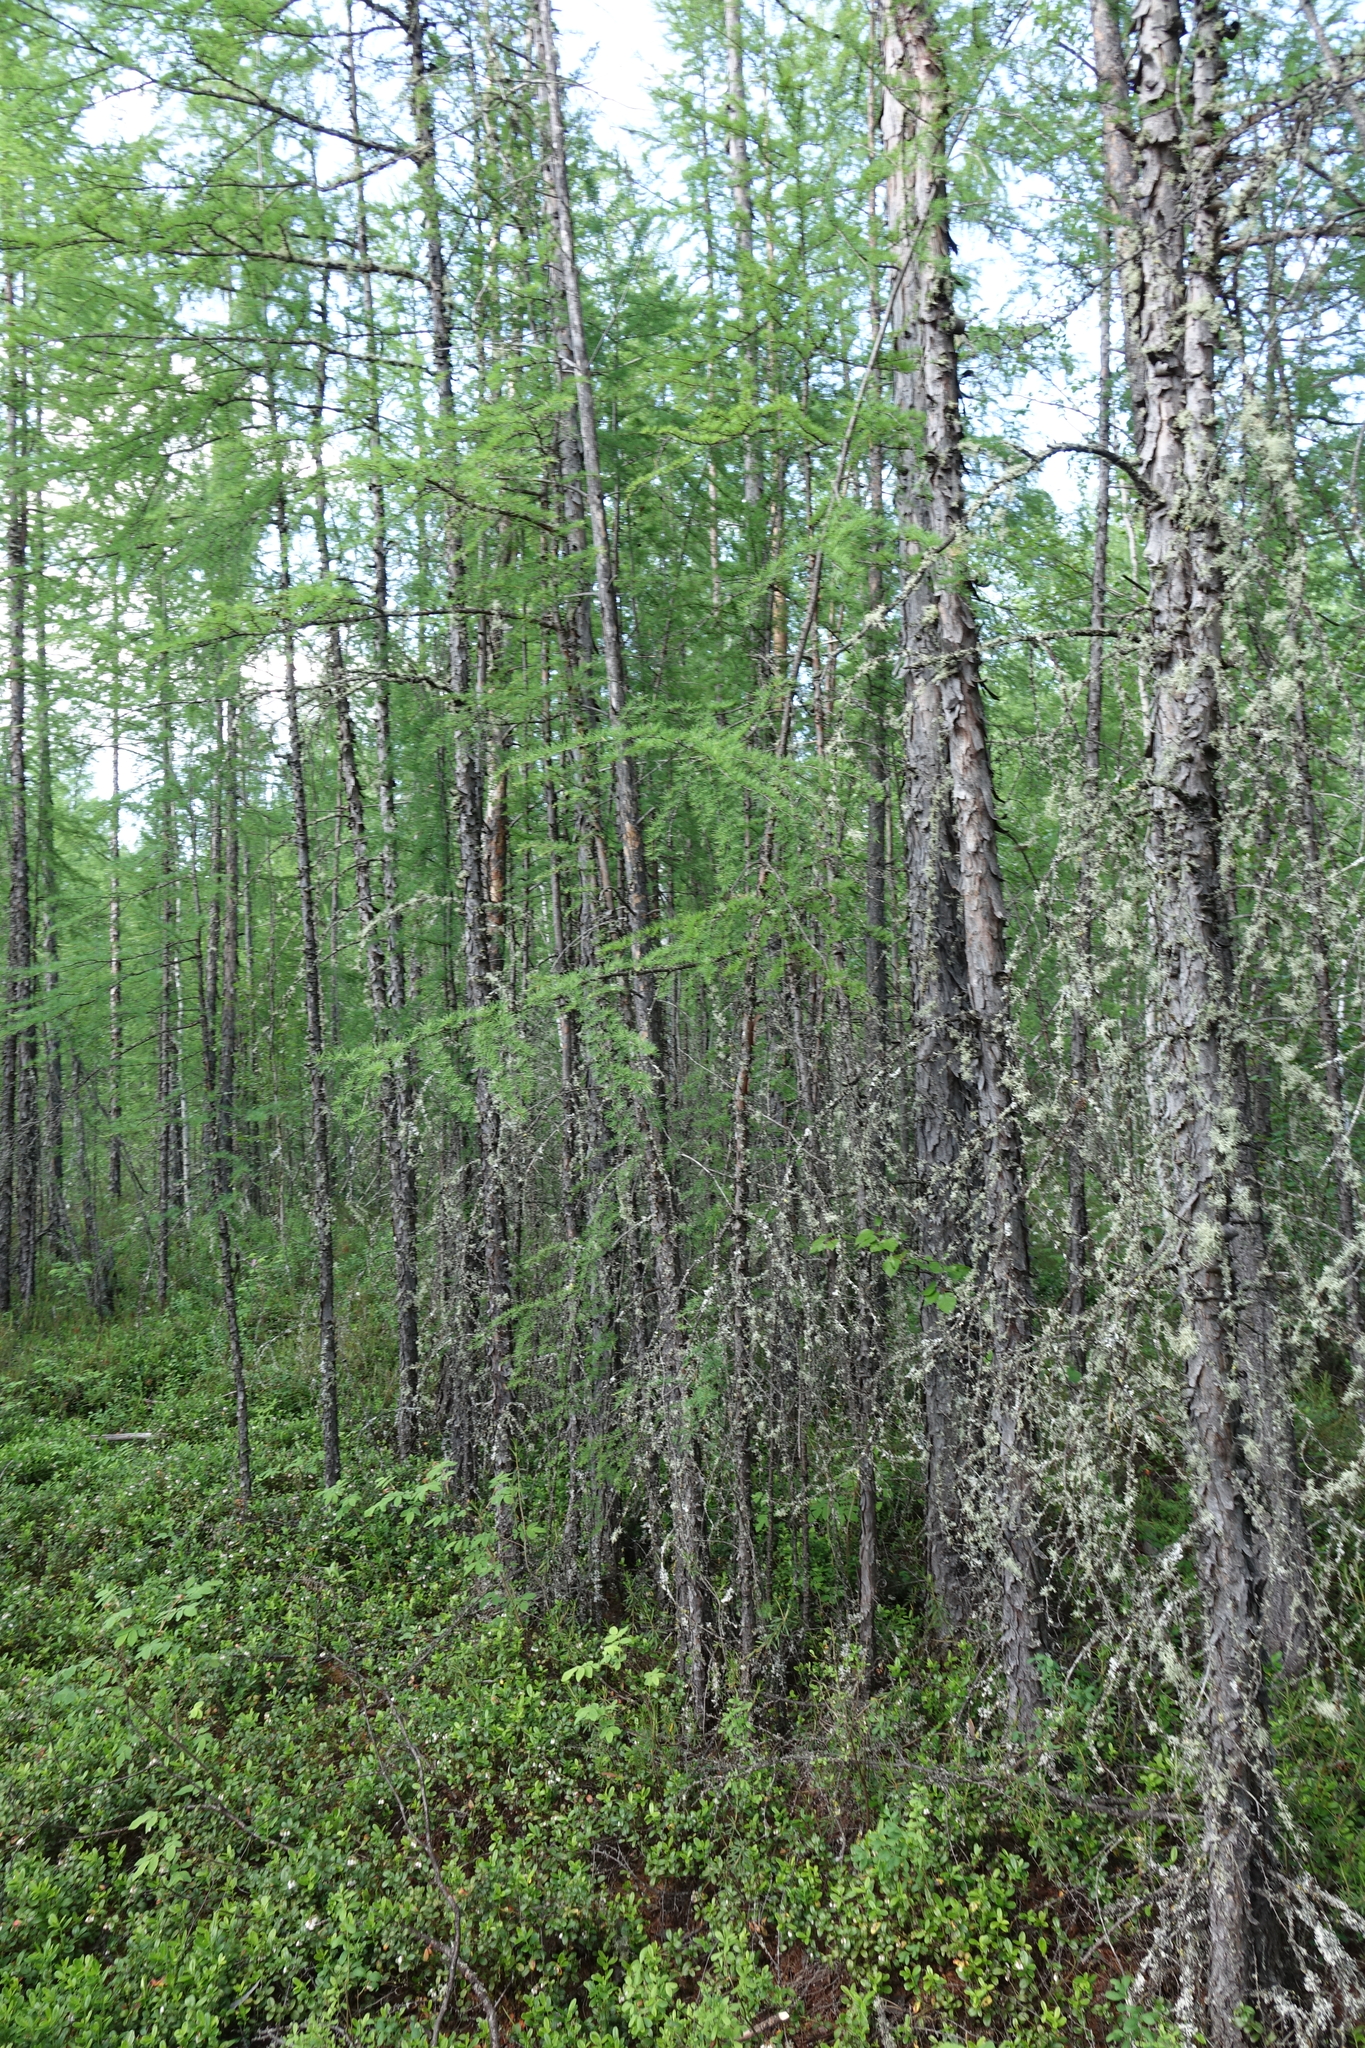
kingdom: Plantae
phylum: Tracheophyta
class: Pinopsida
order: Pinales
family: Pinaceae
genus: Larix
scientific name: Larix gmelinii
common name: Dahurian larch
